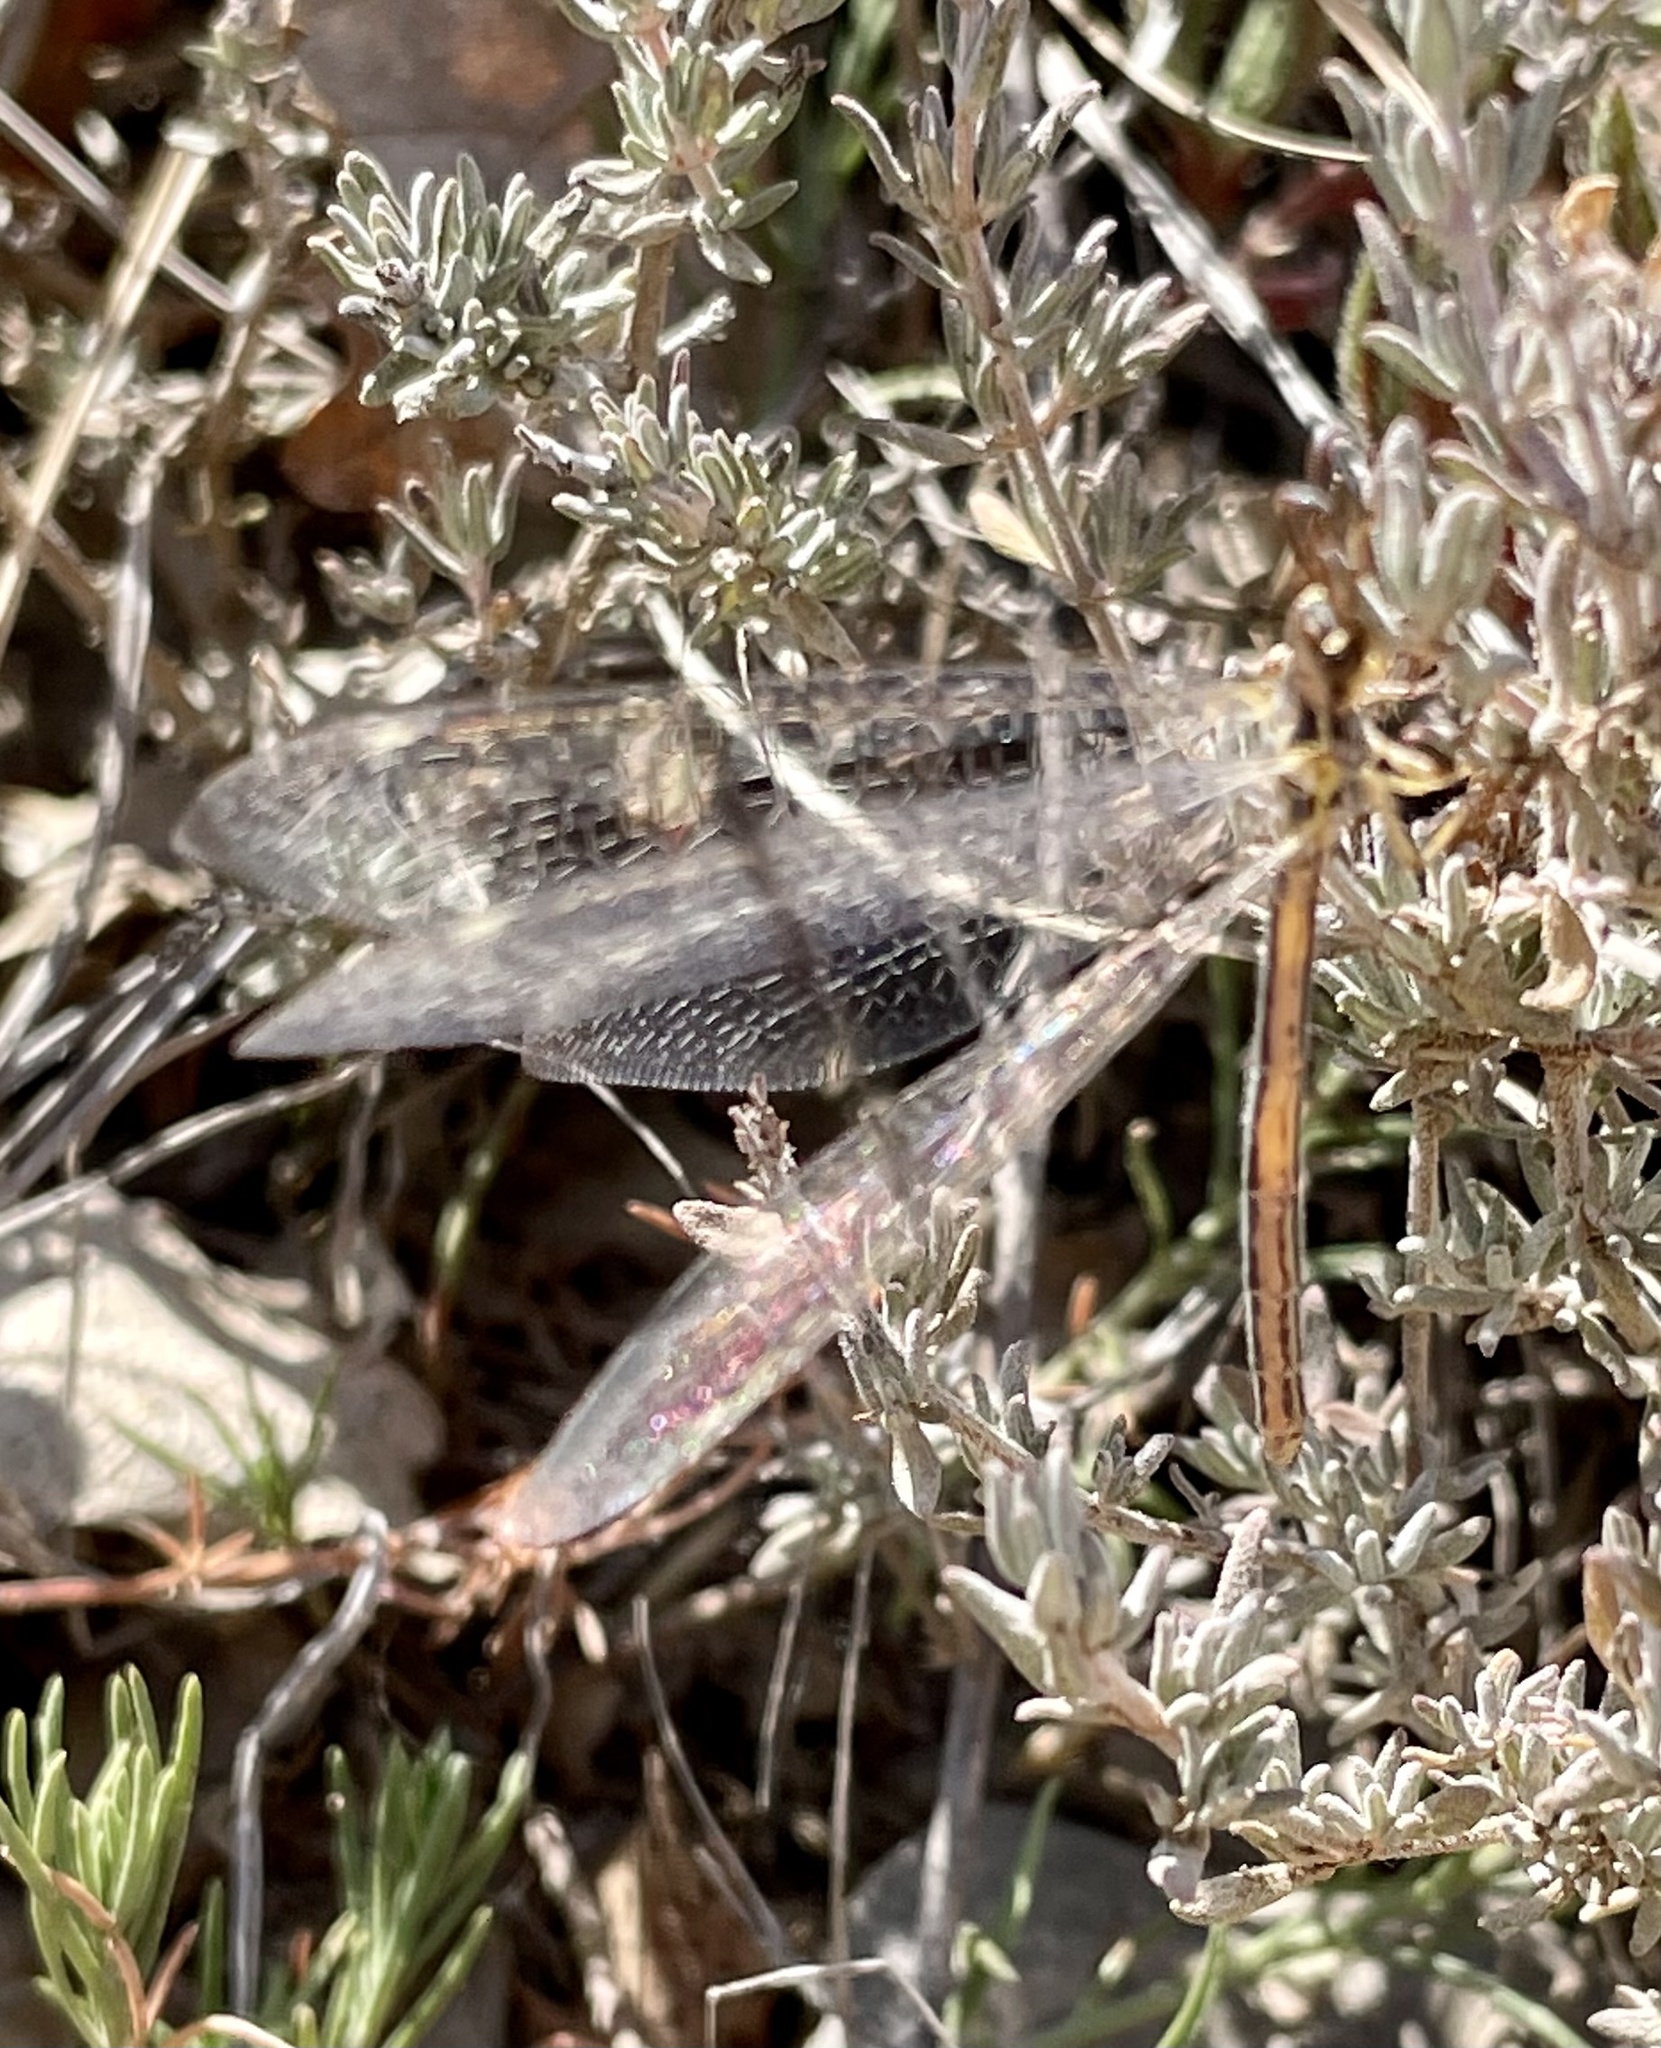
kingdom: Animalia
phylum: Arthropoda
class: Insecta
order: Neuroptera
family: Myrmeleontidae
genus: Macronemurus
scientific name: Macronemurus appendiculatus
